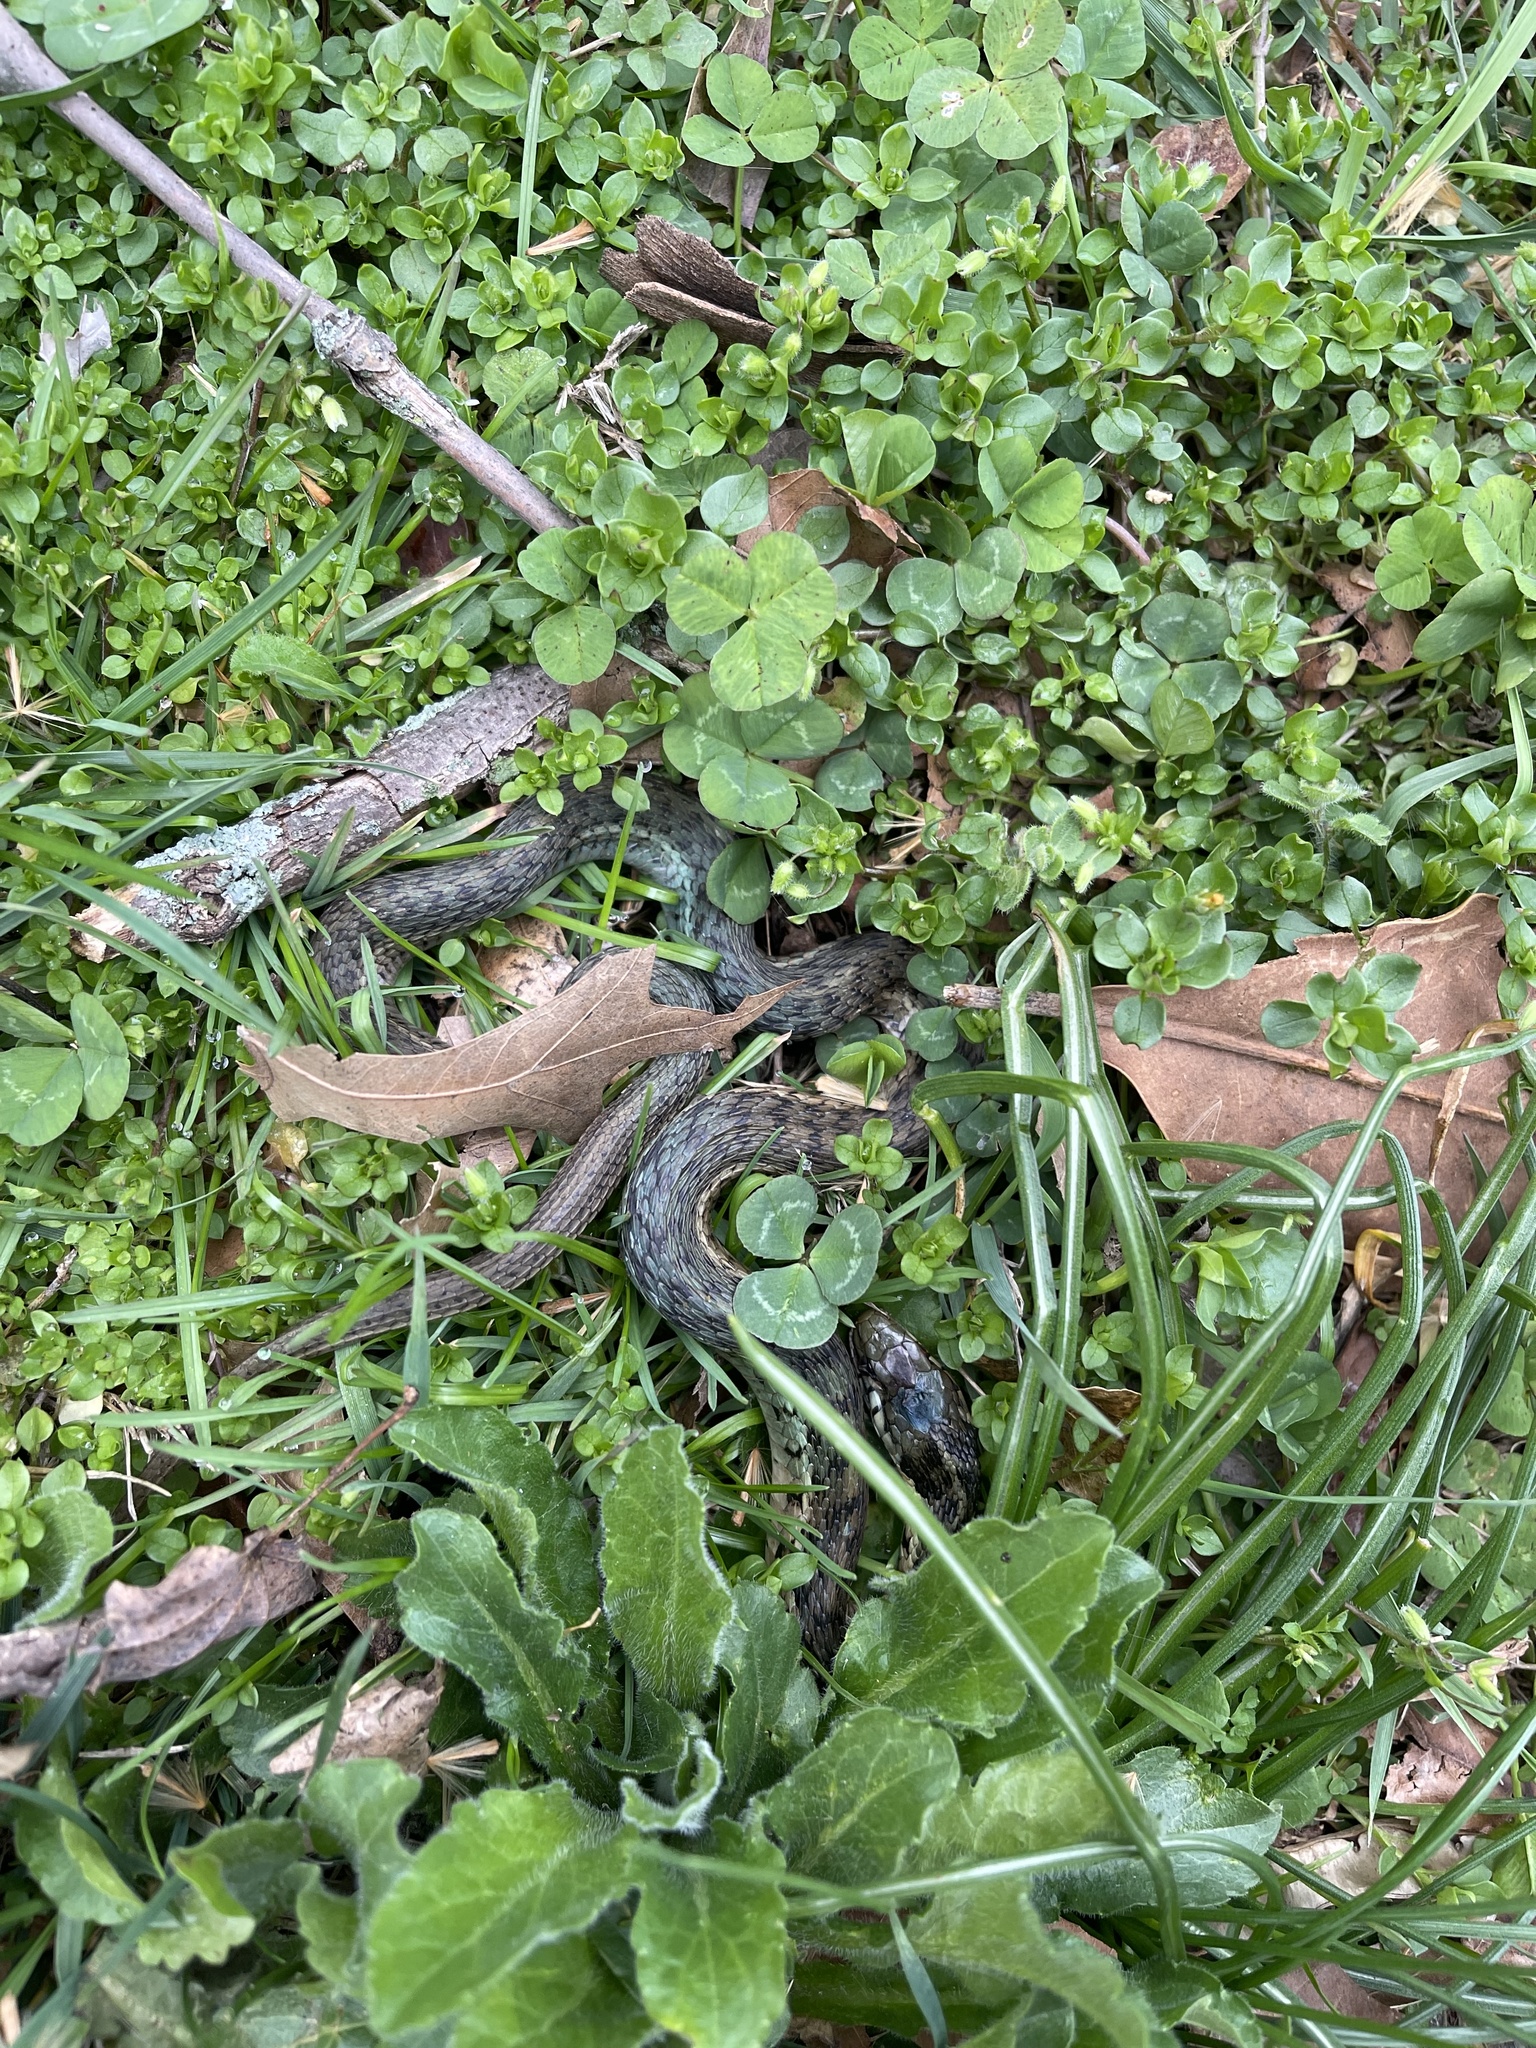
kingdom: Animalia
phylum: Chordata
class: Squamata
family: Colubridae
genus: Thamnophis
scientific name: Thamnophis sirtalis
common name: Common garter snake
